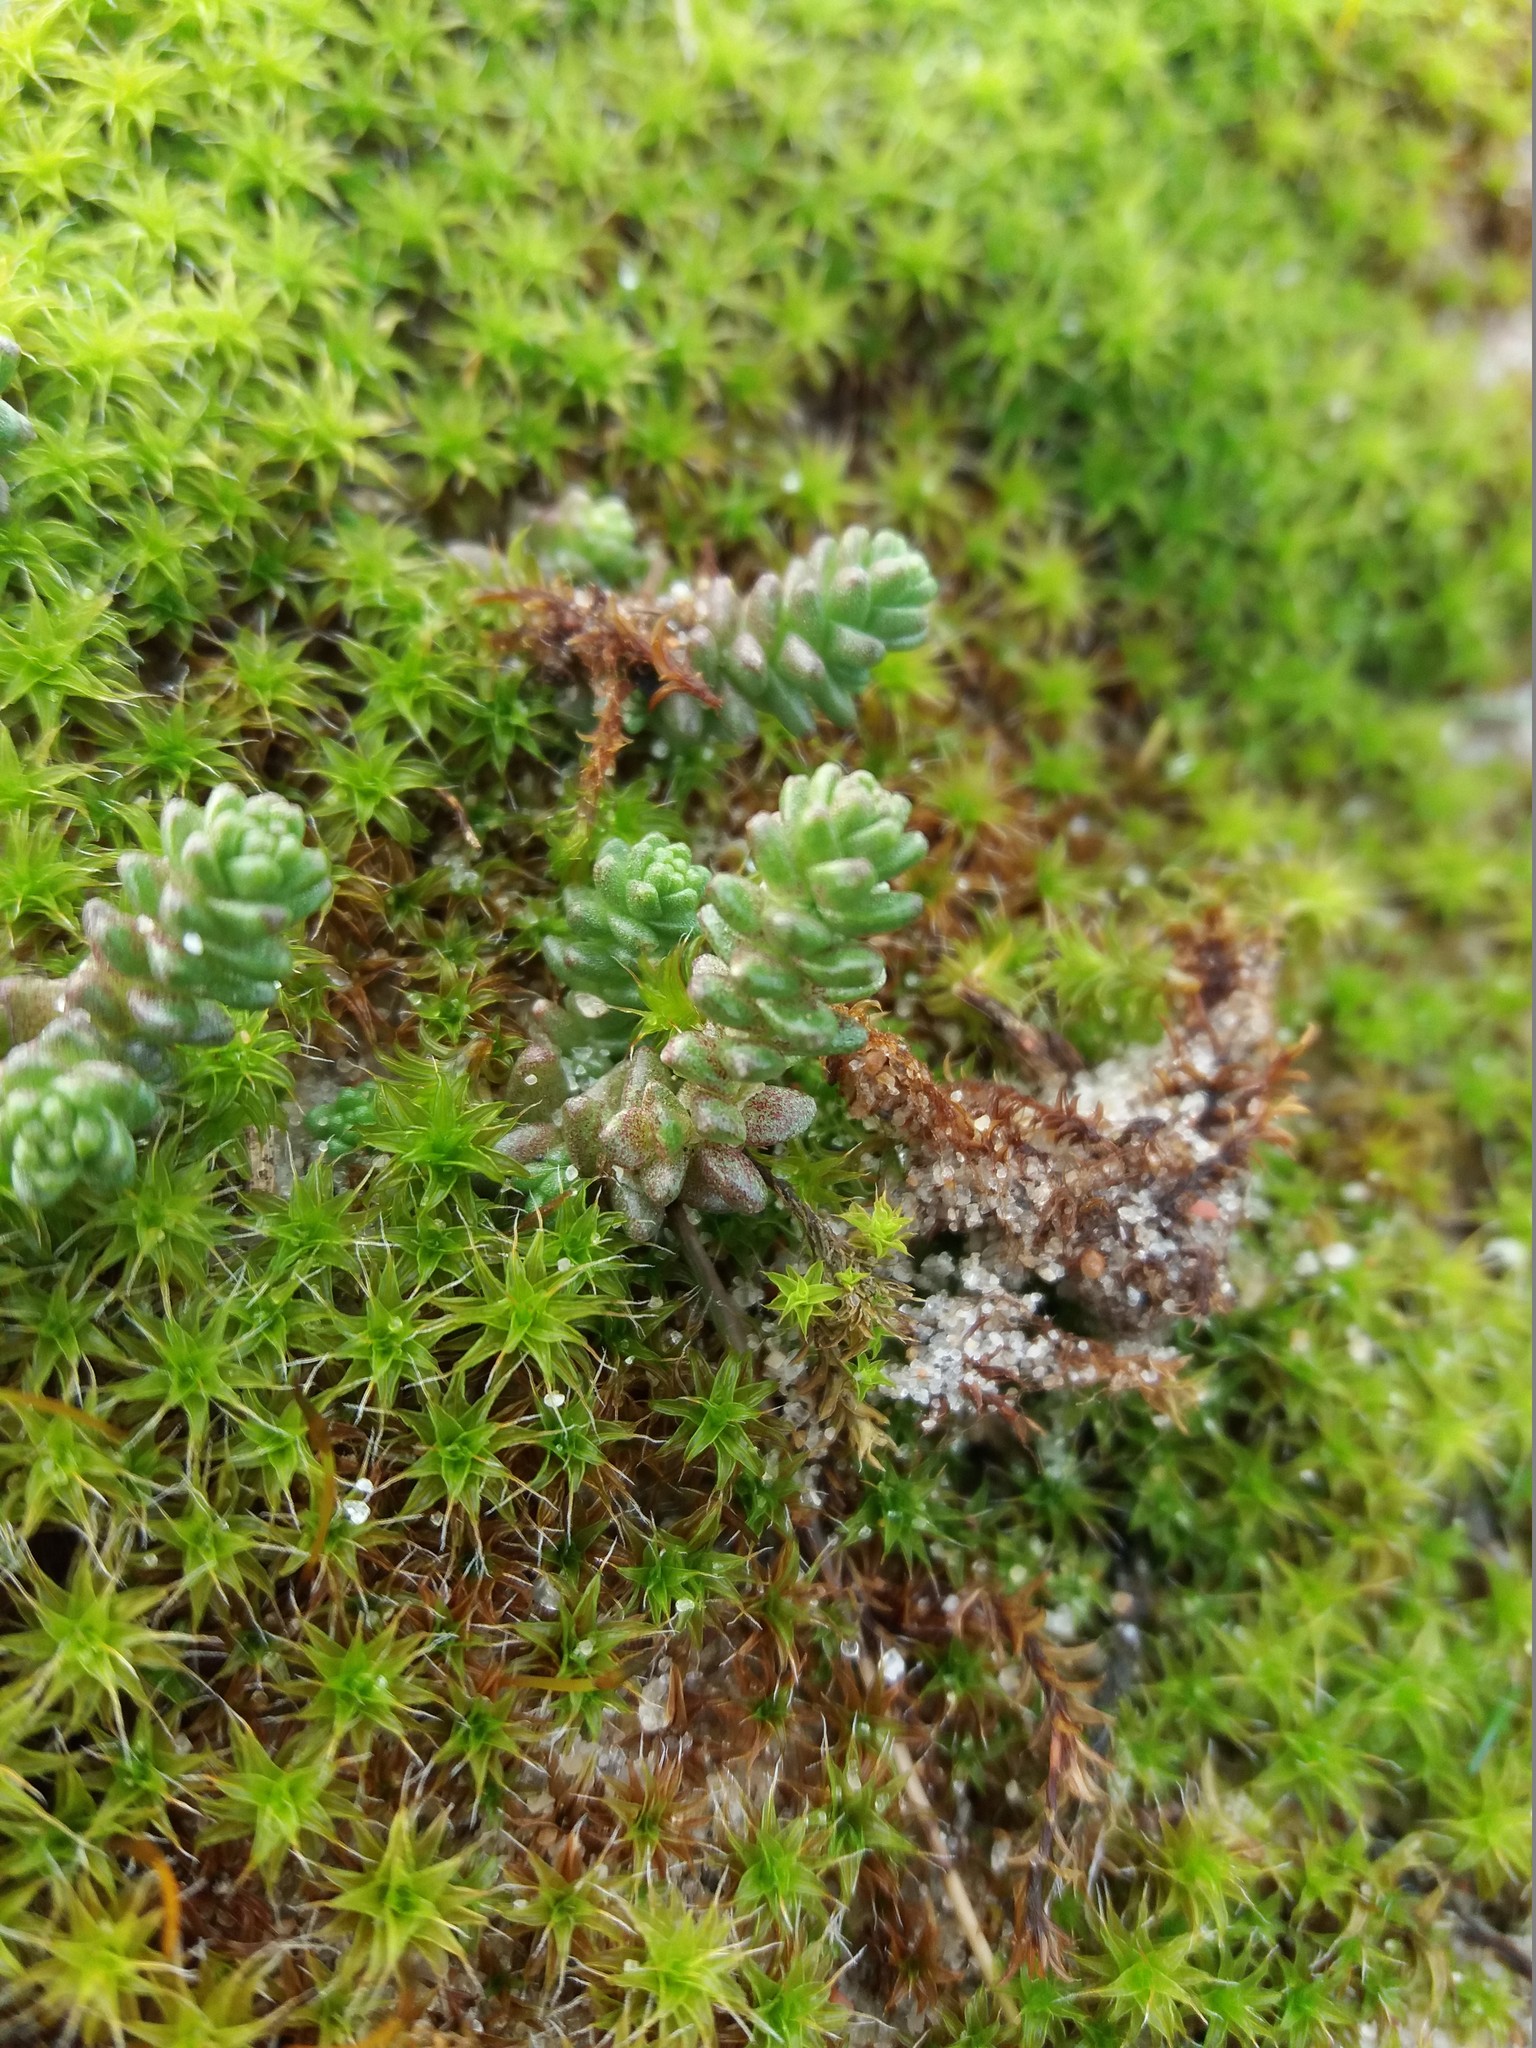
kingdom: Plantae
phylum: Tracheophyta
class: Magnoliopsida
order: Saxifragales
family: Crassulaceae
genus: Sedum
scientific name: Sedum acre
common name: Biting stonecrop
